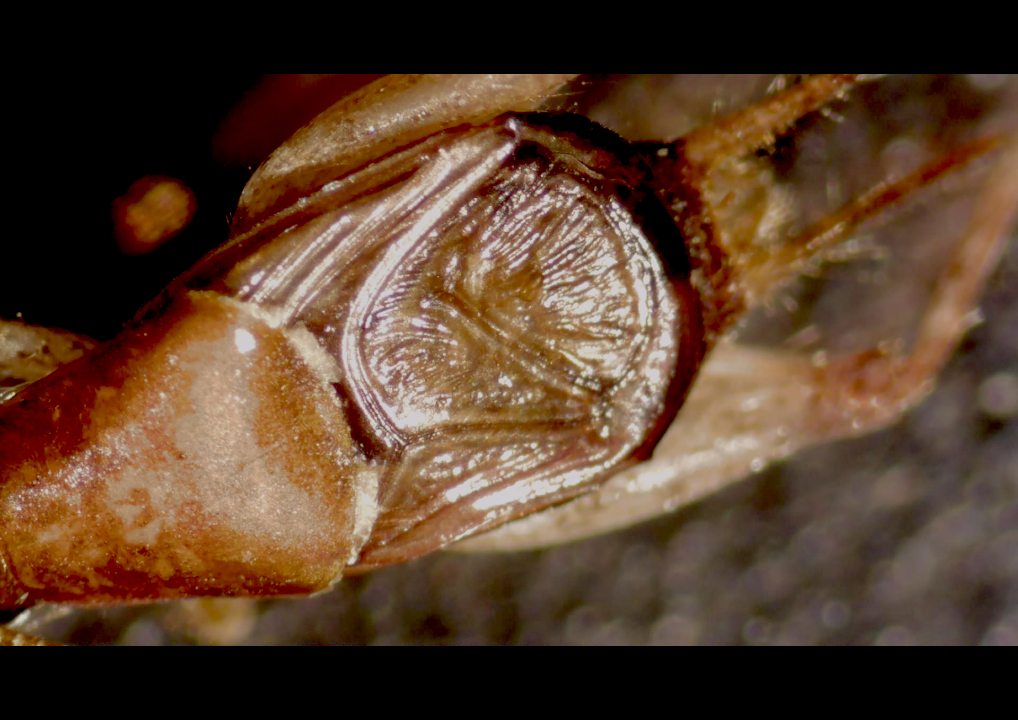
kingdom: Animalia
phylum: Arthropoda
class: Insecta
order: Orthoptera
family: Mogoplistidae
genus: Ornebius
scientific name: Ornebius aperta
